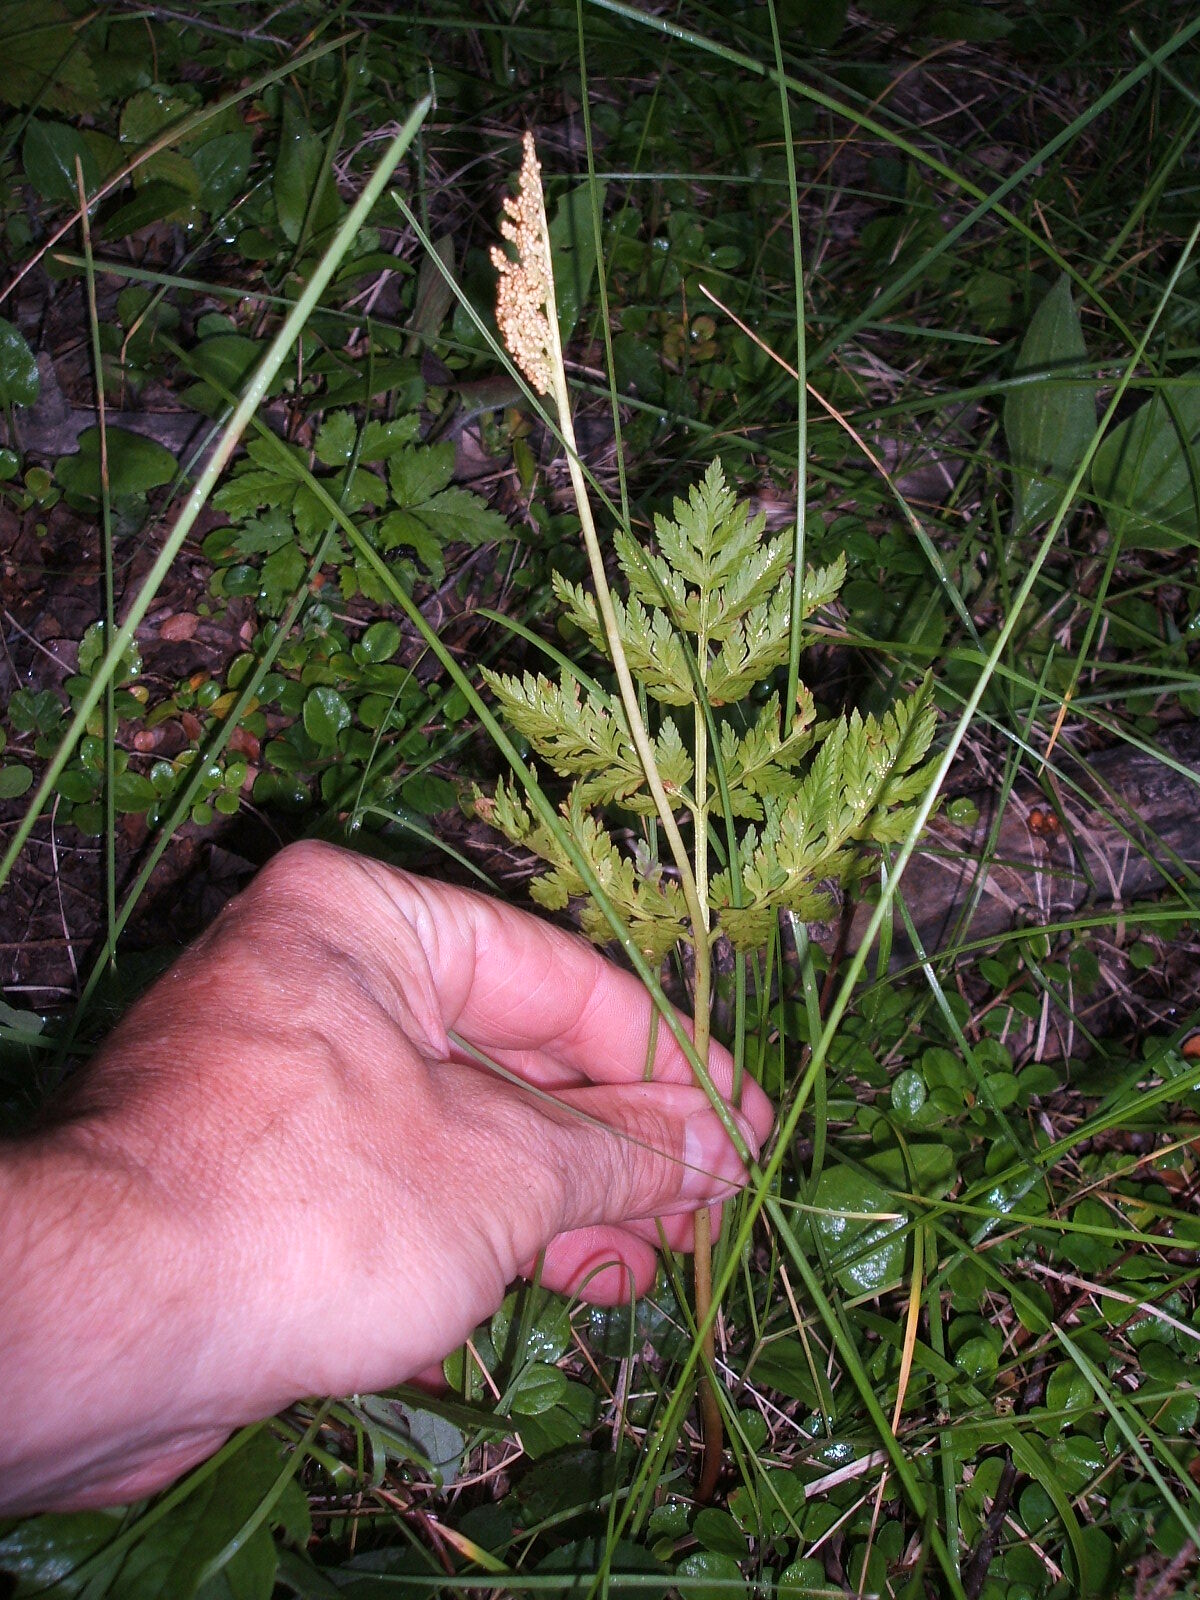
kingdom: Plantae
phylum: Tracheophyta
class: Polypodiopsida
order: Ophioglossales
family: Ophioglossaceae
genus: Botrypus
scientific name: Botrypus virginianus
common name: Common grapefern
